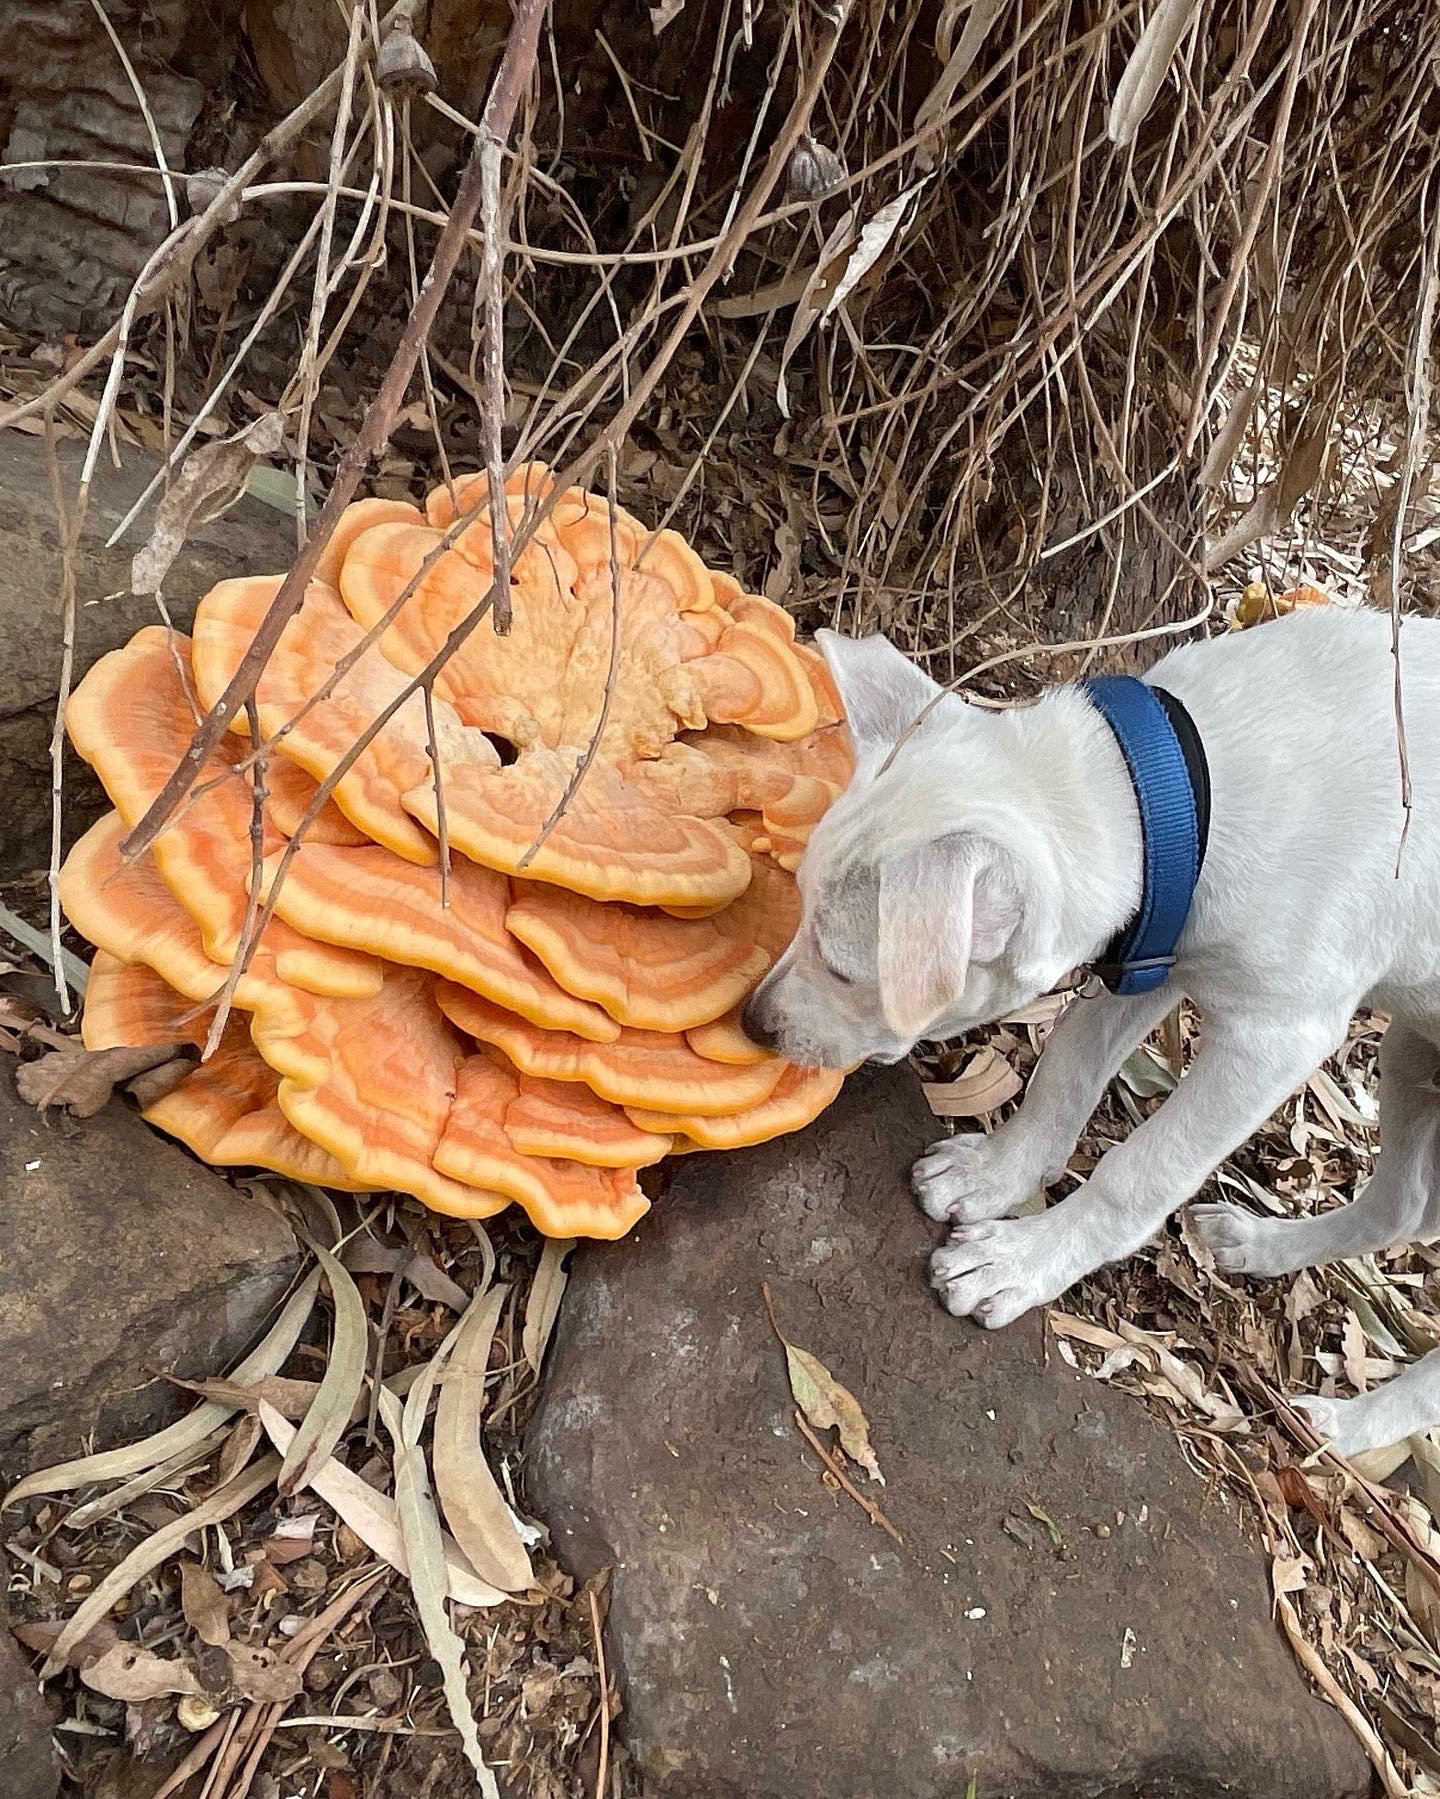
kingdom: Fungi
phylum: Basidiomycota
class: Agaricomycetes
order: Polyporales
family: Laetiporaceae
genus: Laetiporus
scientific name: Laetiporus gilbertsonii
